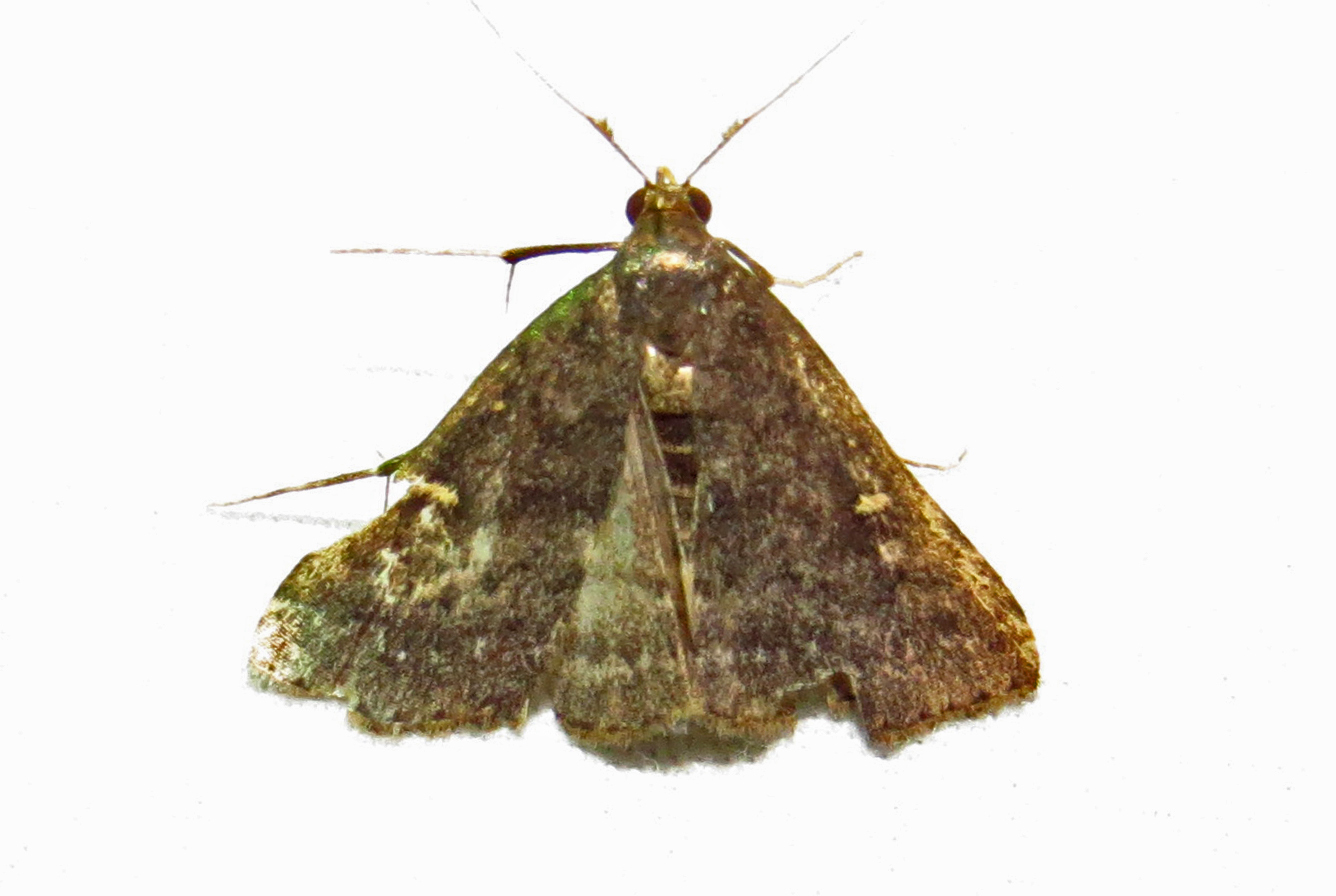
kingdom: Animalia
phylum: Arthropoda
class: Insecta
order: Lepidoptera
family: Erebidae
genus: Tetanolita
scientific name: Tetanolita mynesalis
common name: Smoky tetanolita moth
